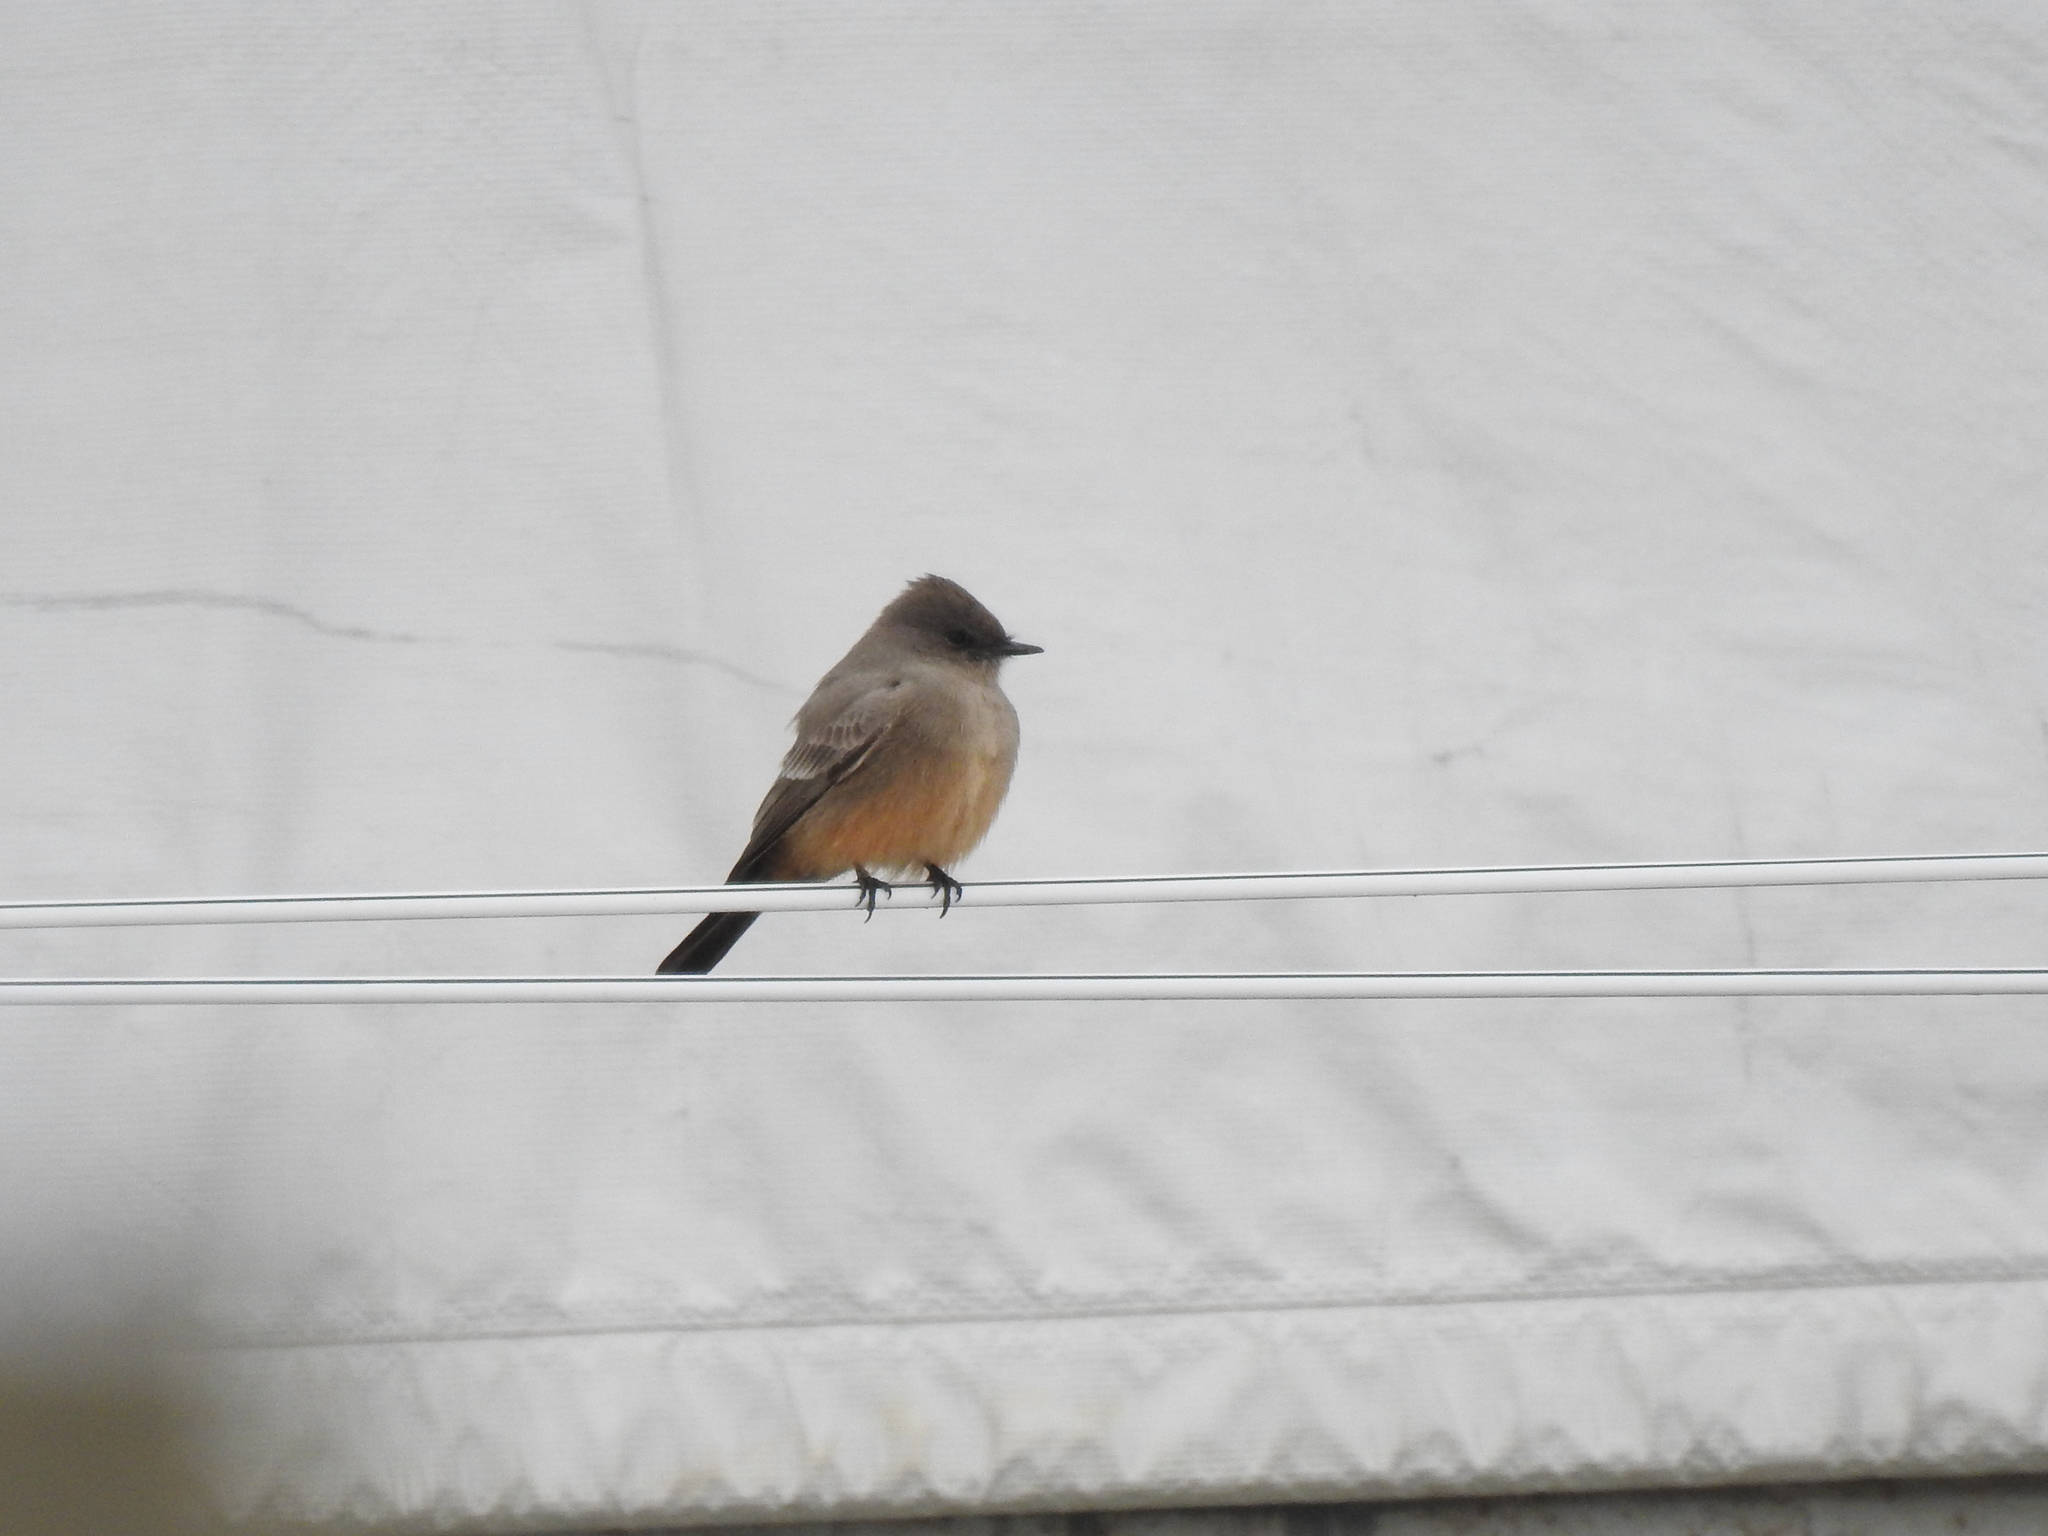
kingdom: Animalia
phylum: Chordata
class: Aves
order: Passeriformes
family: Tyrannidae
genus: Sayornis
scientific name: Sayornis saya
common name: Say's phoebe
